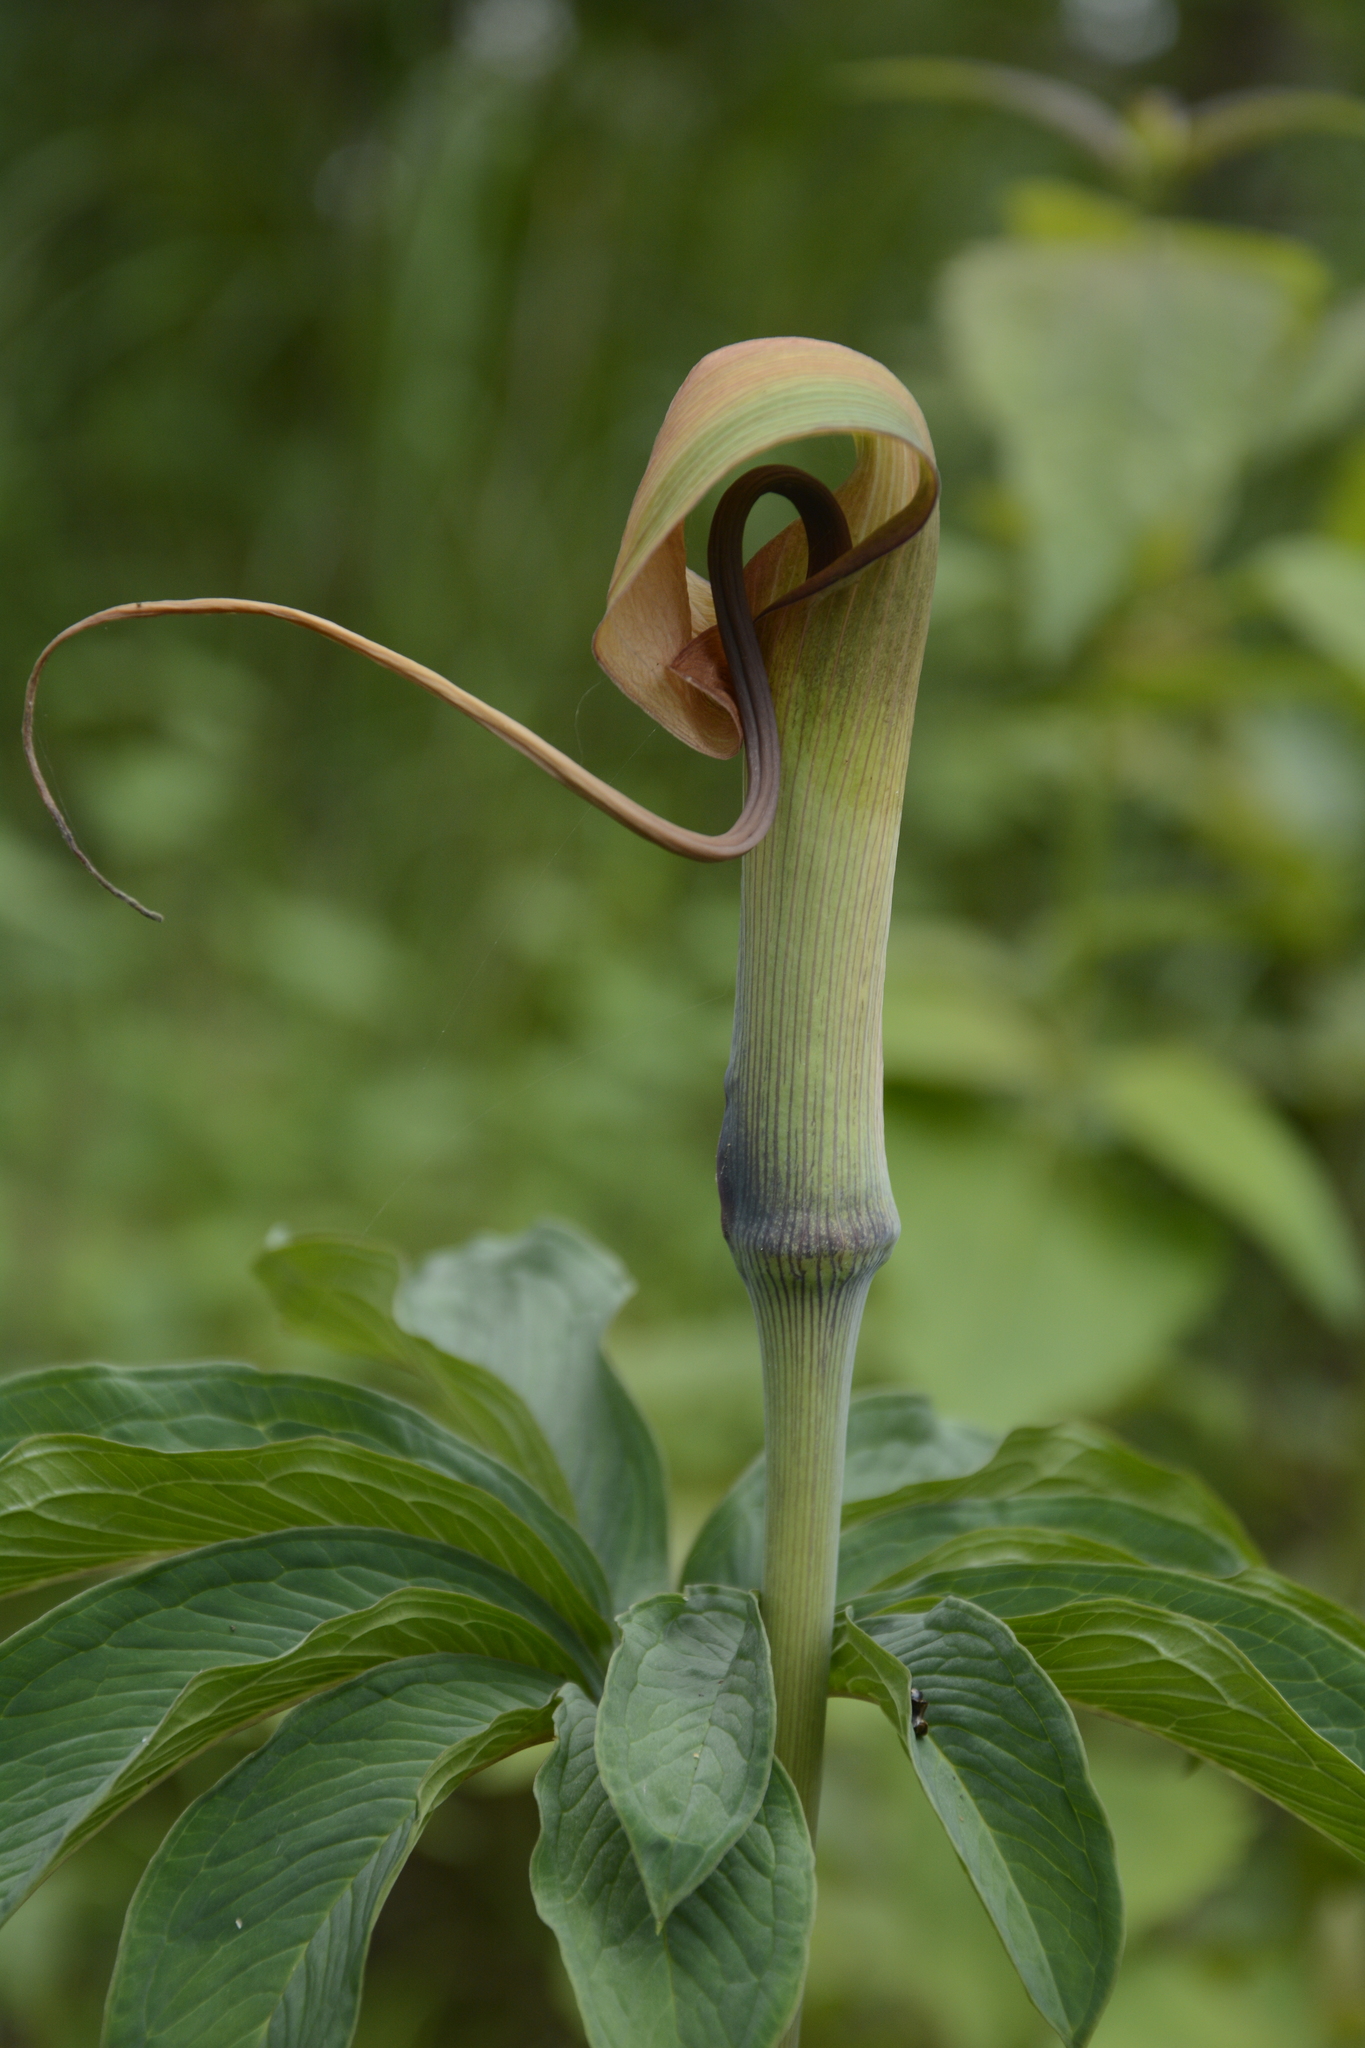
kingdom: Plantae
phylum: Tracheophyta
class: Liliopsida
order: Alismatales
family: Araceae
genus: Arisaema
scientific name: Arisaema tortuosum
